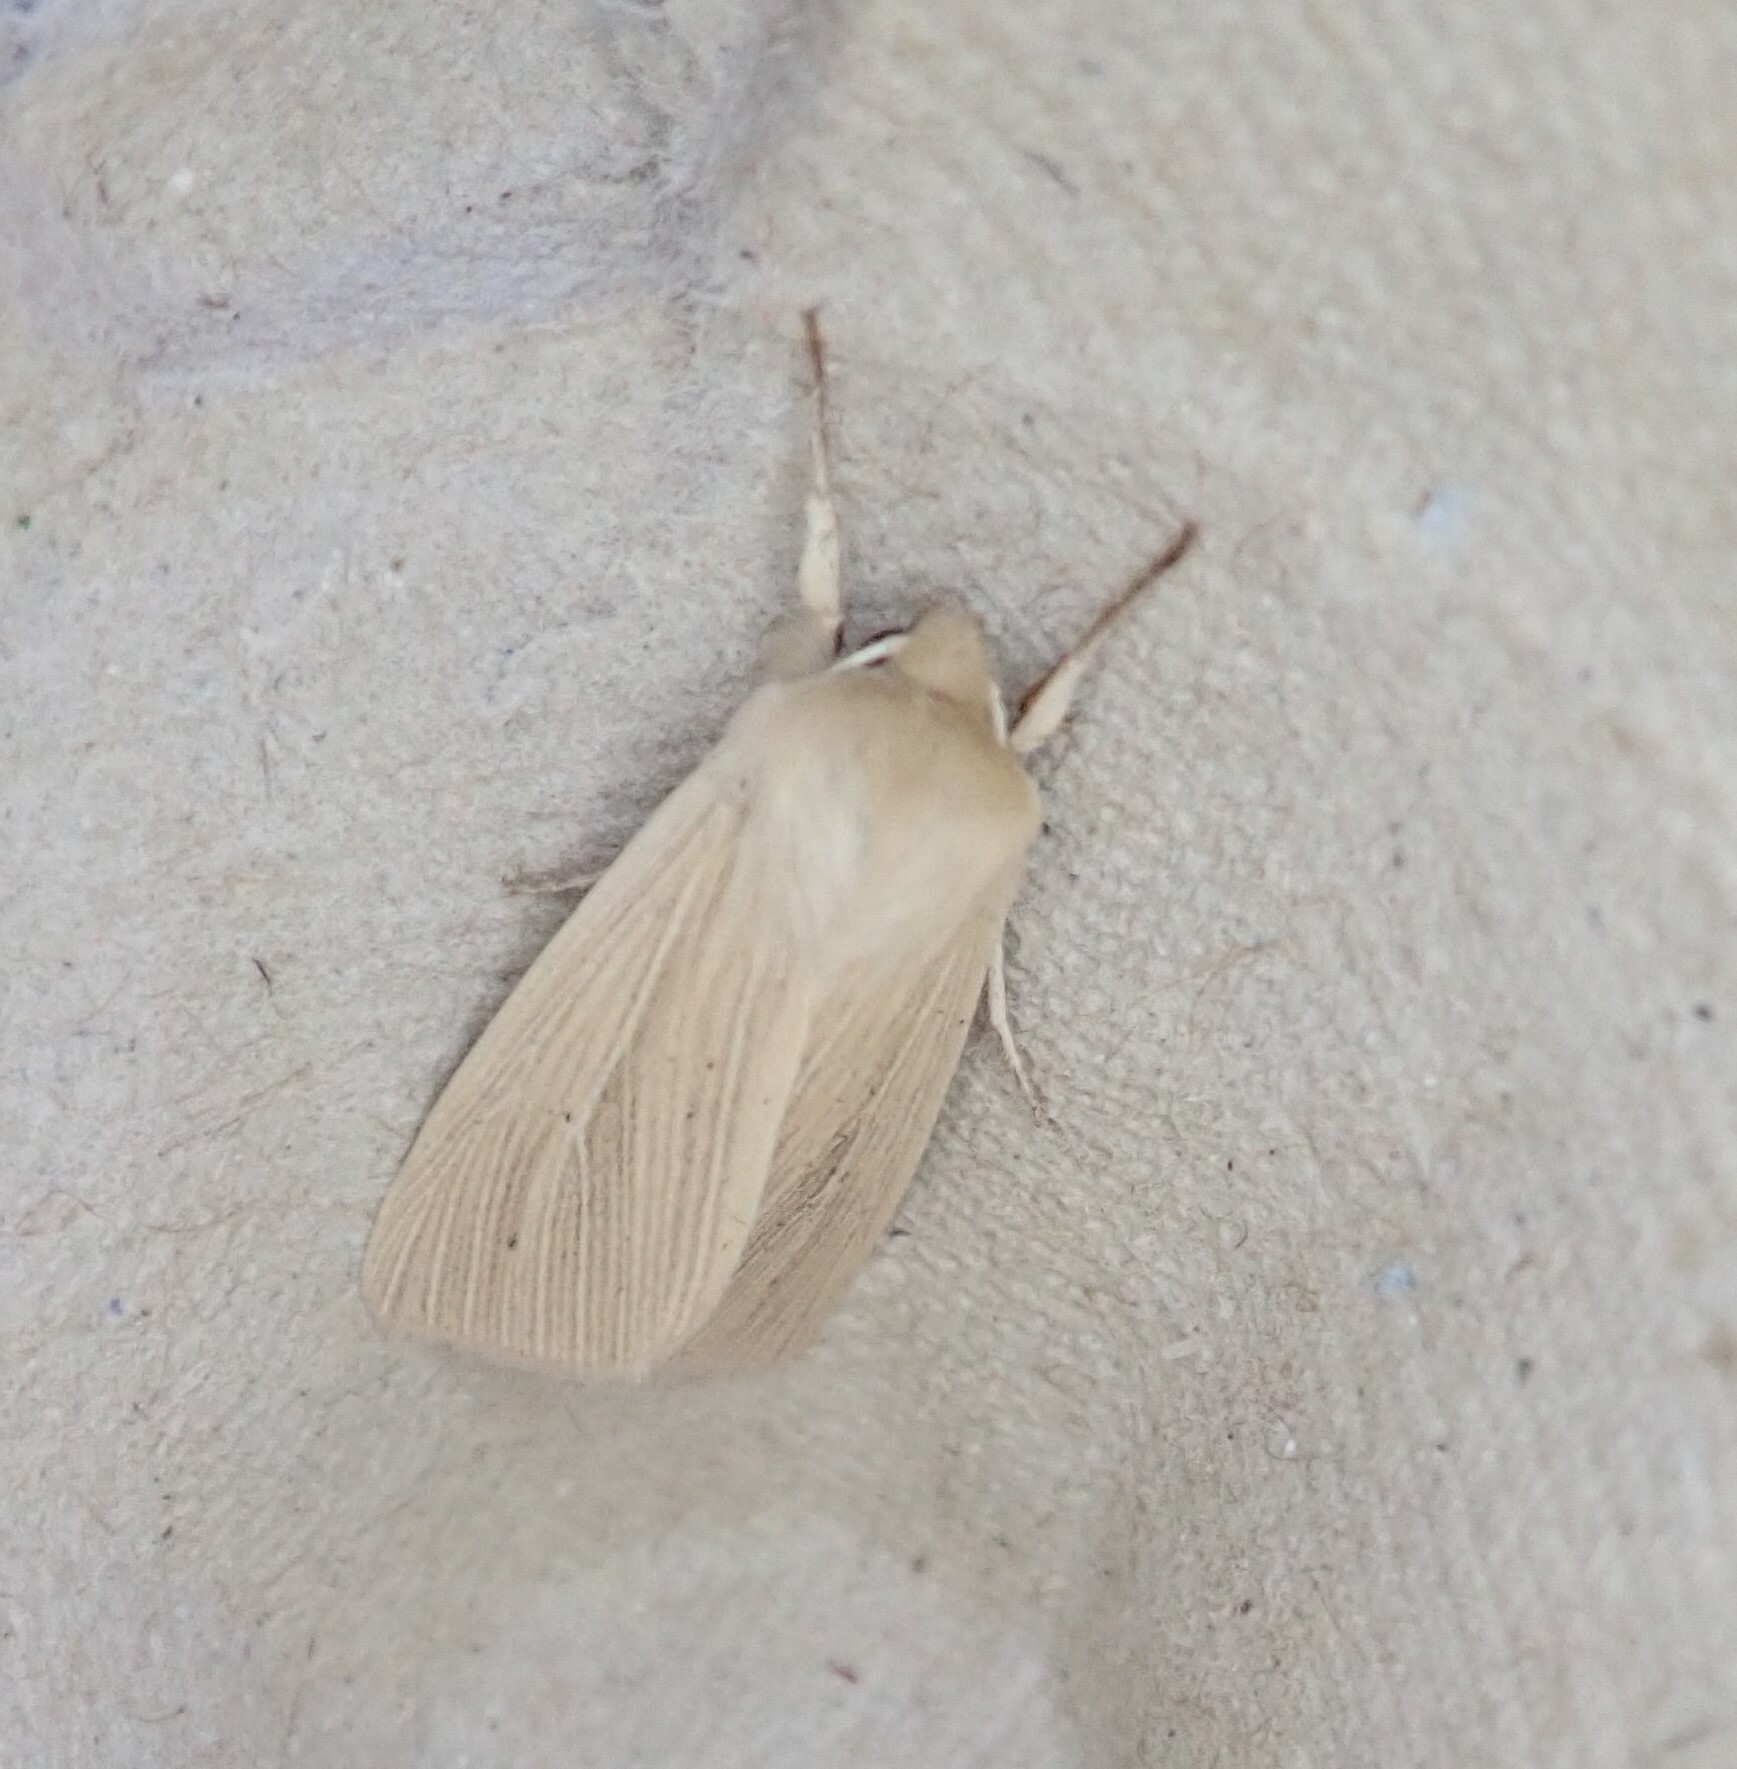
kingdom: Animalia
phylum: Arthropoda
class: Insecta
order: Lepidoptera
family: Noctuidae
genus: Mythimna
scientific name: Mythimna pallens
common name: Common wainscot
